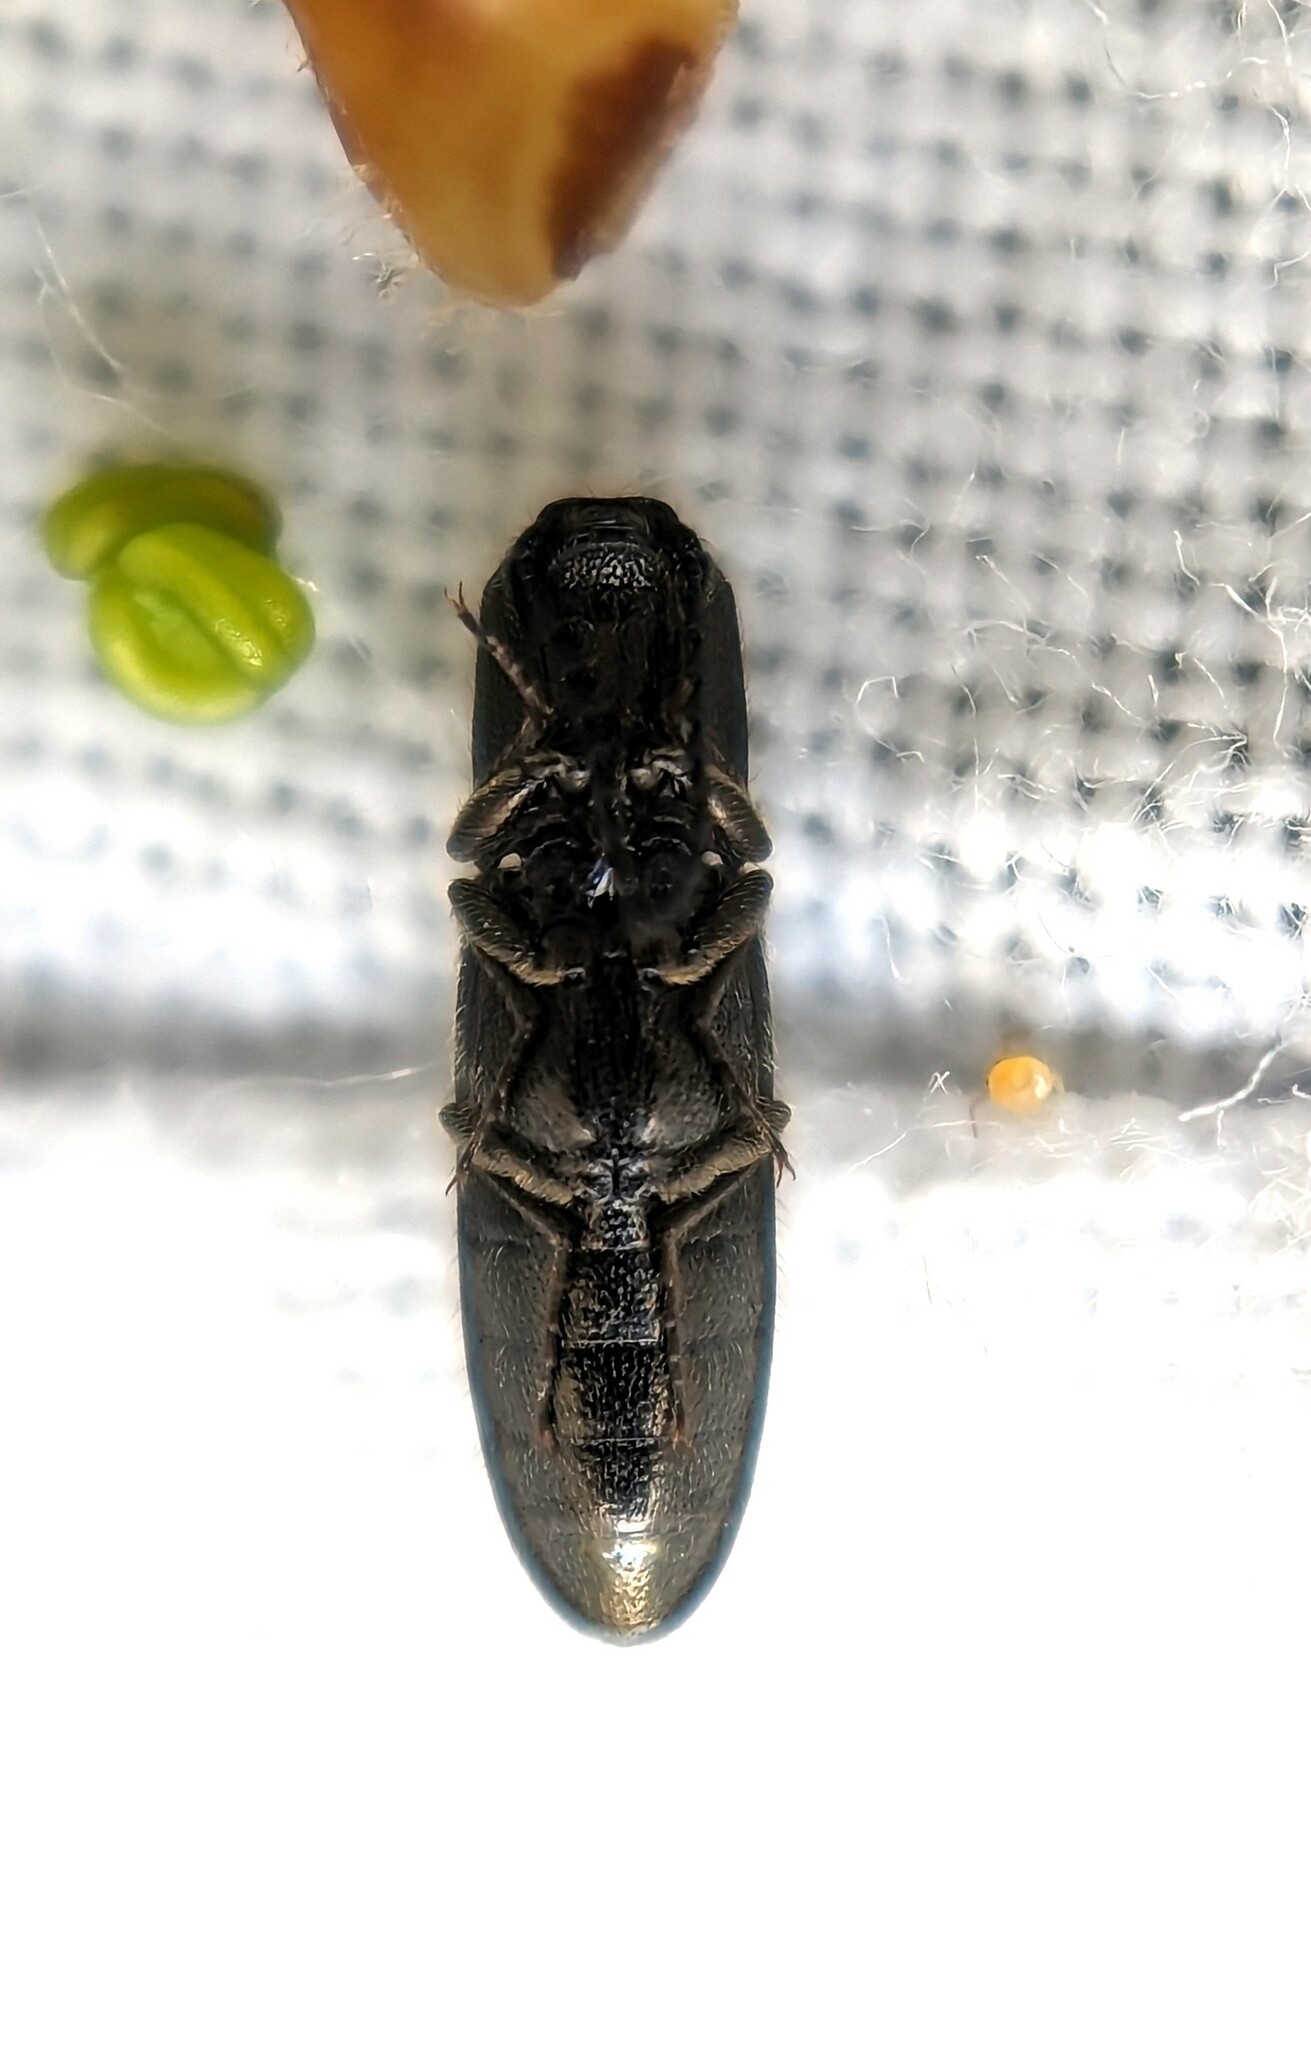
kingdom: Animalia
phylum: Arthropoda
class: Insecta
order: Coleoptera
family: Elateridae
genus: Limonius
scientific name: Limonius minutus
